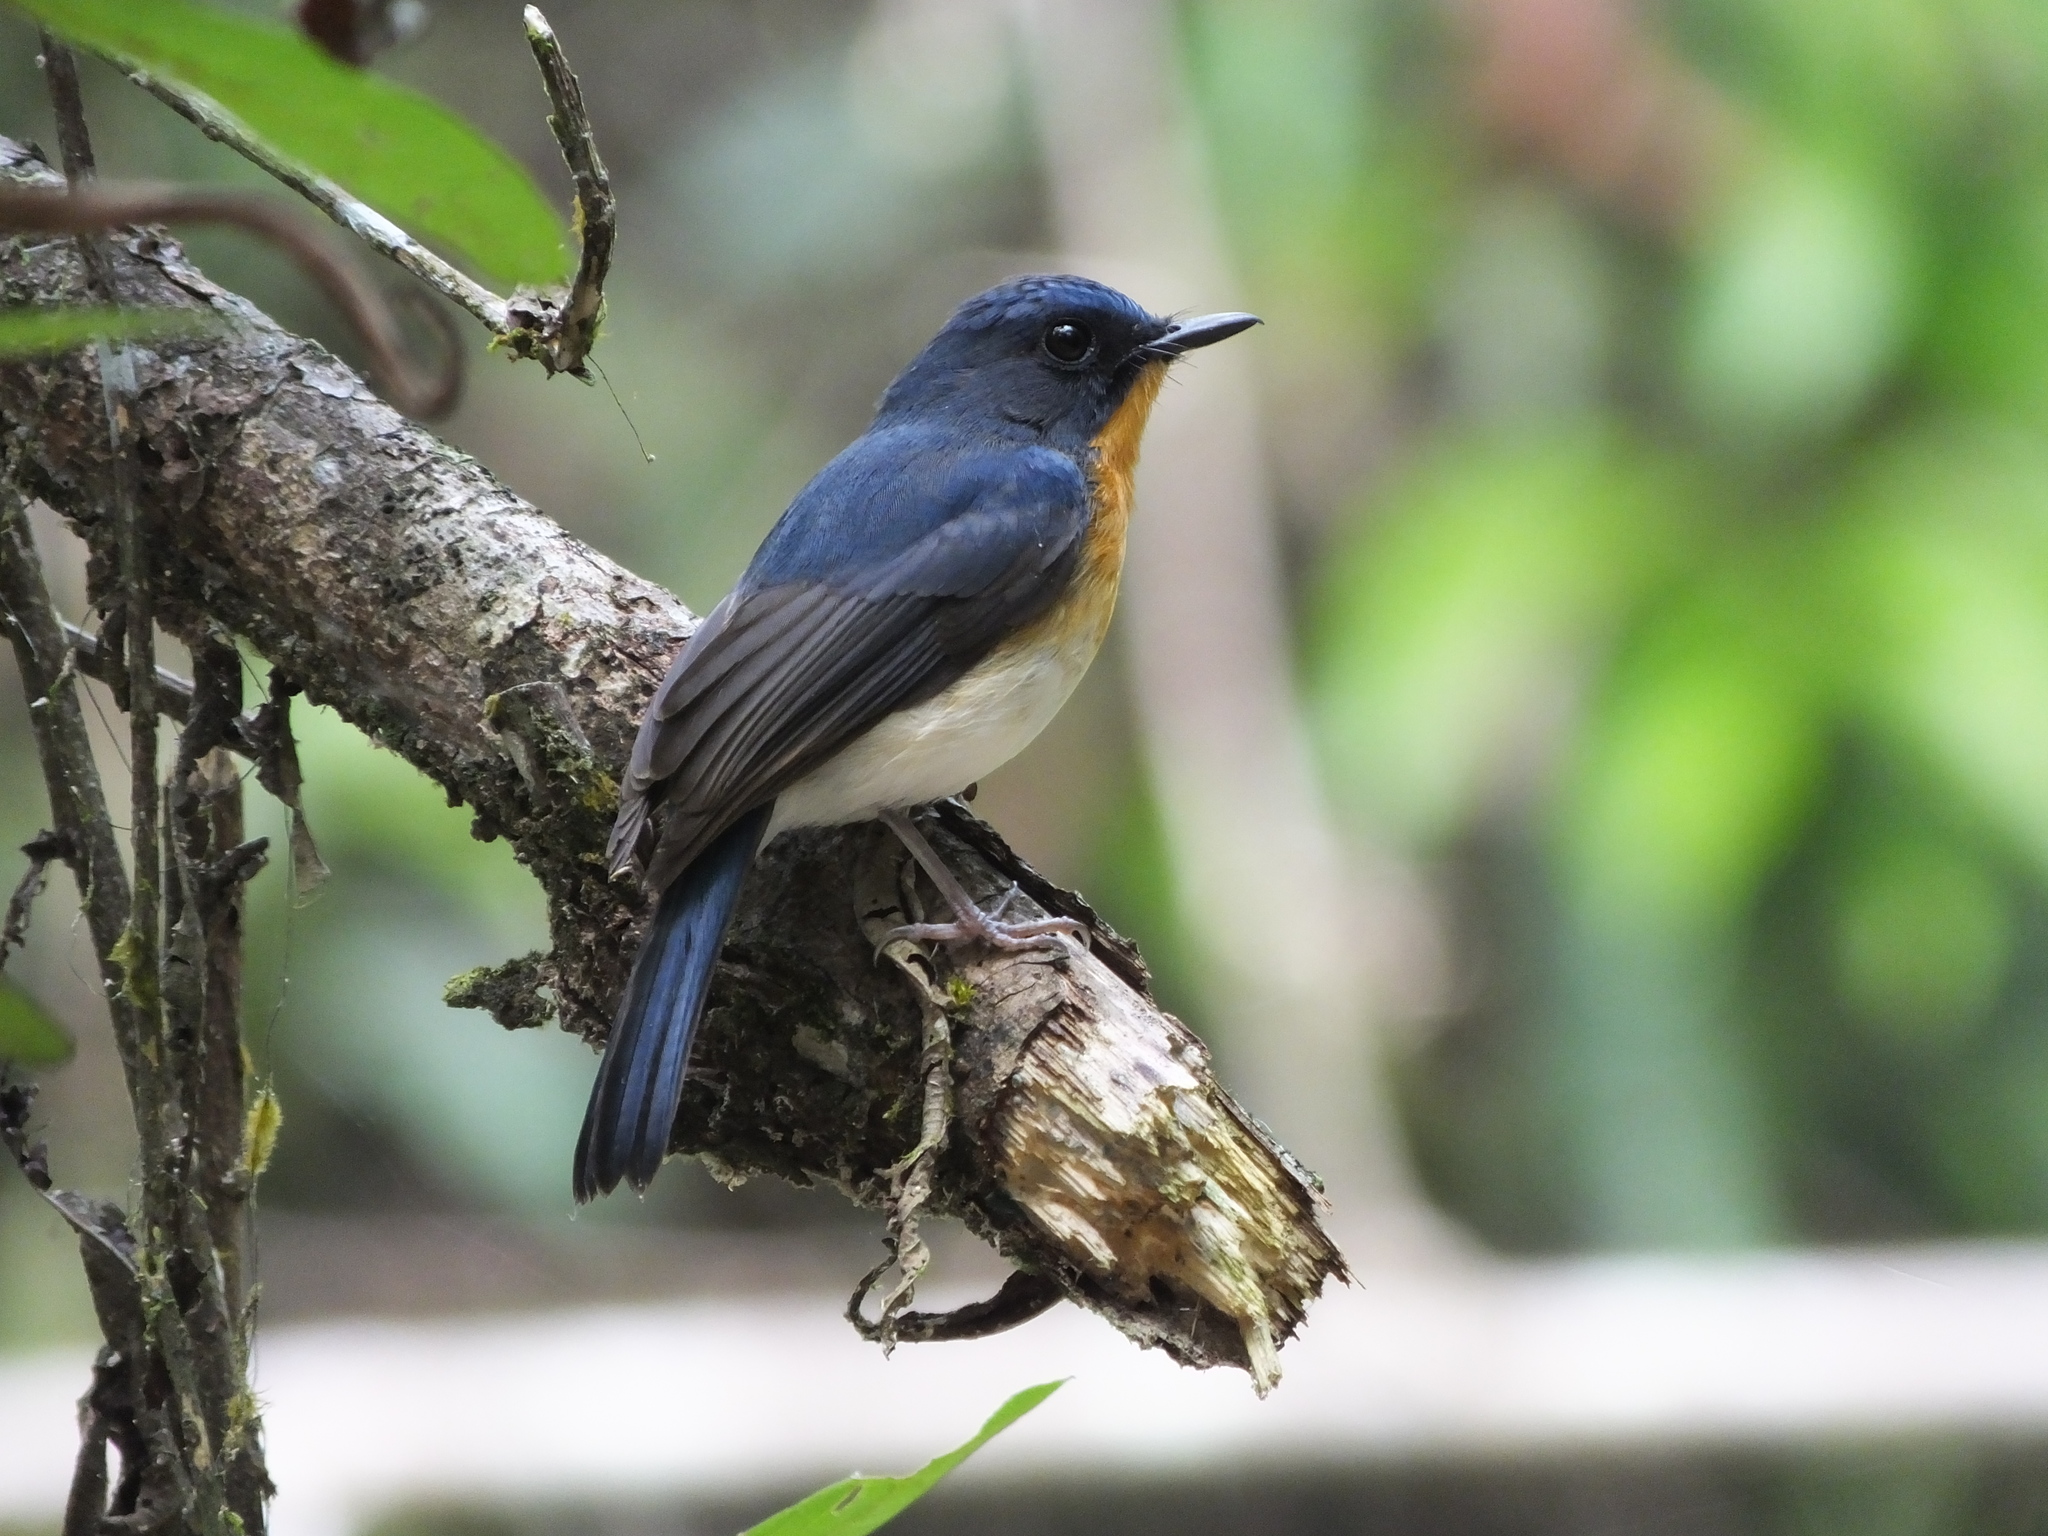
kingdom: Animalia
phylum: Chordata
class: Aves
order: Passeriformes
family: Muscicapidae
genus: Cyornis
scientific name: Cyornis tickelliae
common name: Tickell's blue flycatcher
